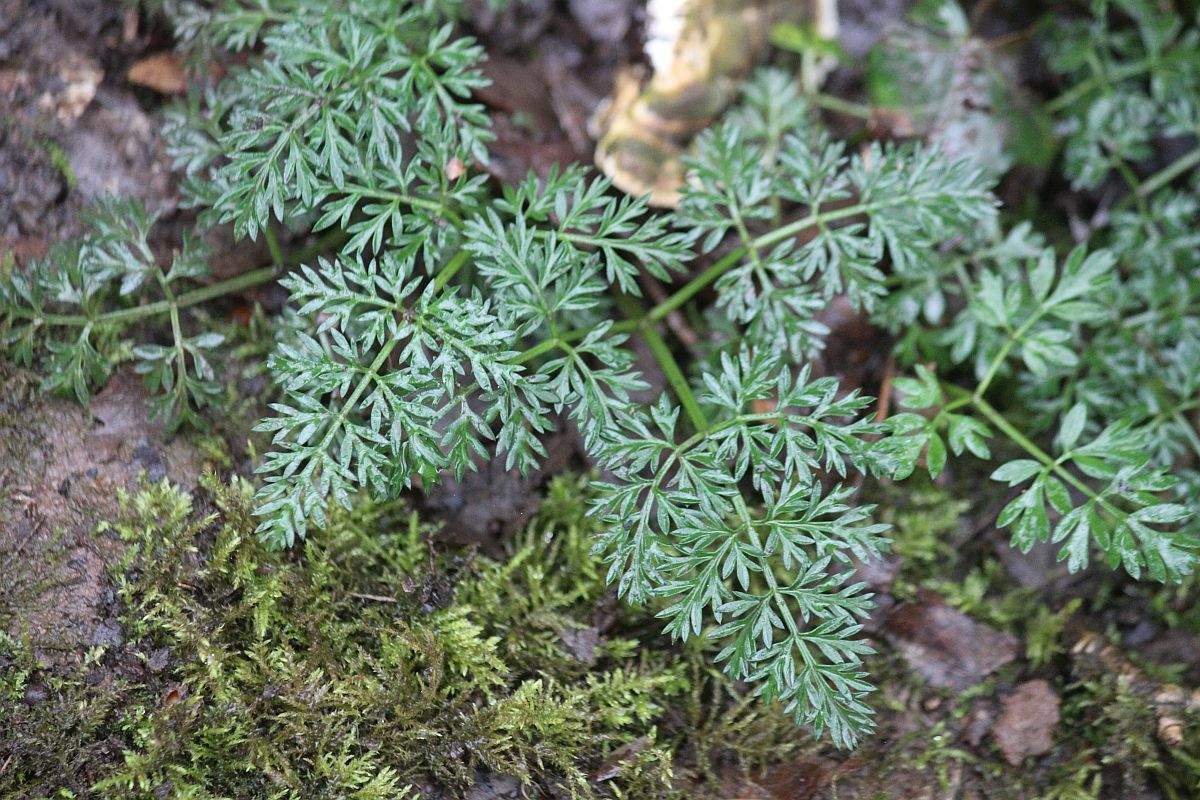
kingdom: Plantae
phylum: Tracheophyta
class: Magnoliopsida
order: Apiales
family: Apiaceae
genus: Conopodium
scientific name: Conopodium majus
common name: Pignut
